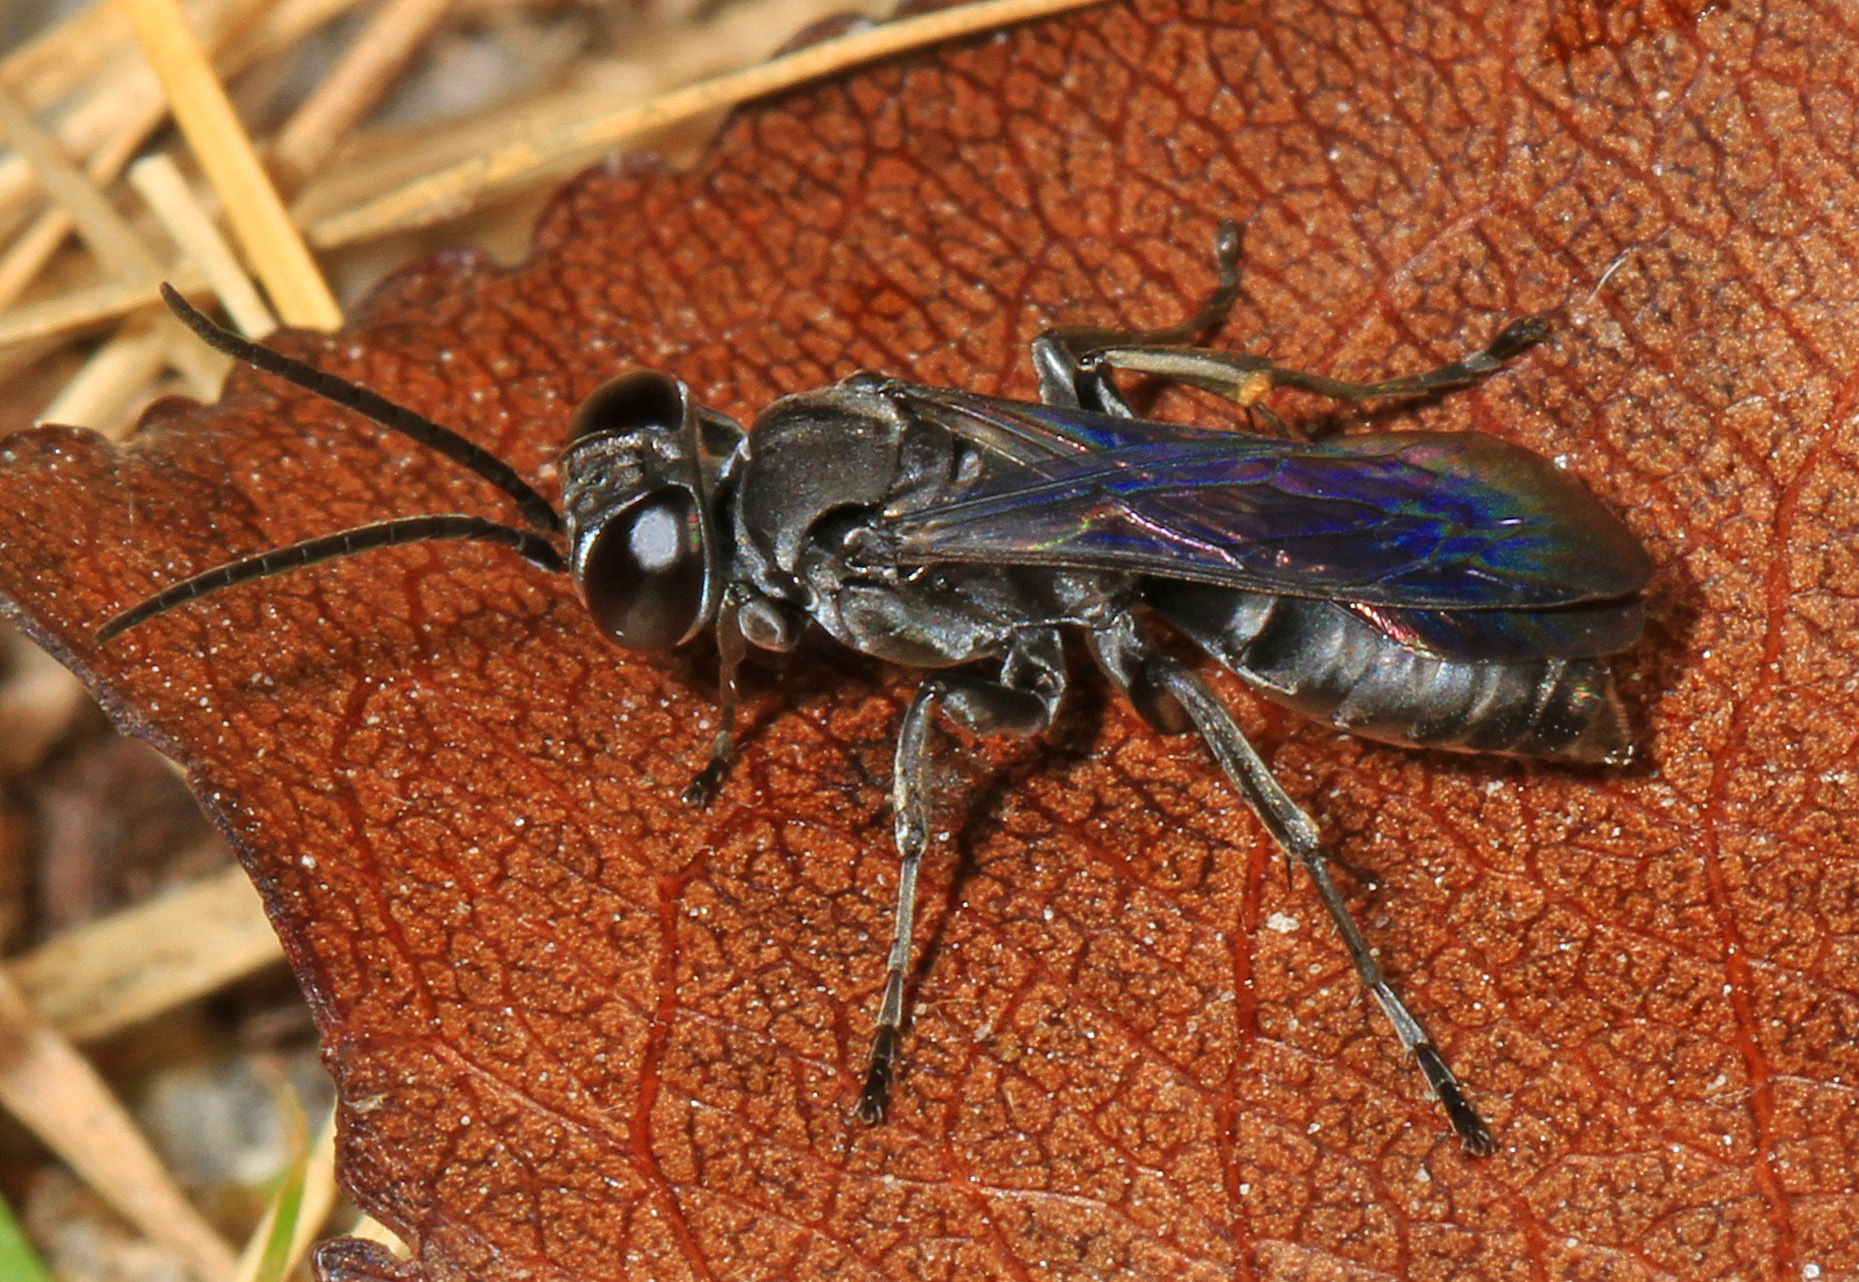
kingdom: Animalia
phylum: Arthropoda
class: Insecta
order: Hymenoptera
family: Crabronidae
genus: Liris
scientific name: Liris argentatus
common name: Crabronid wasp
